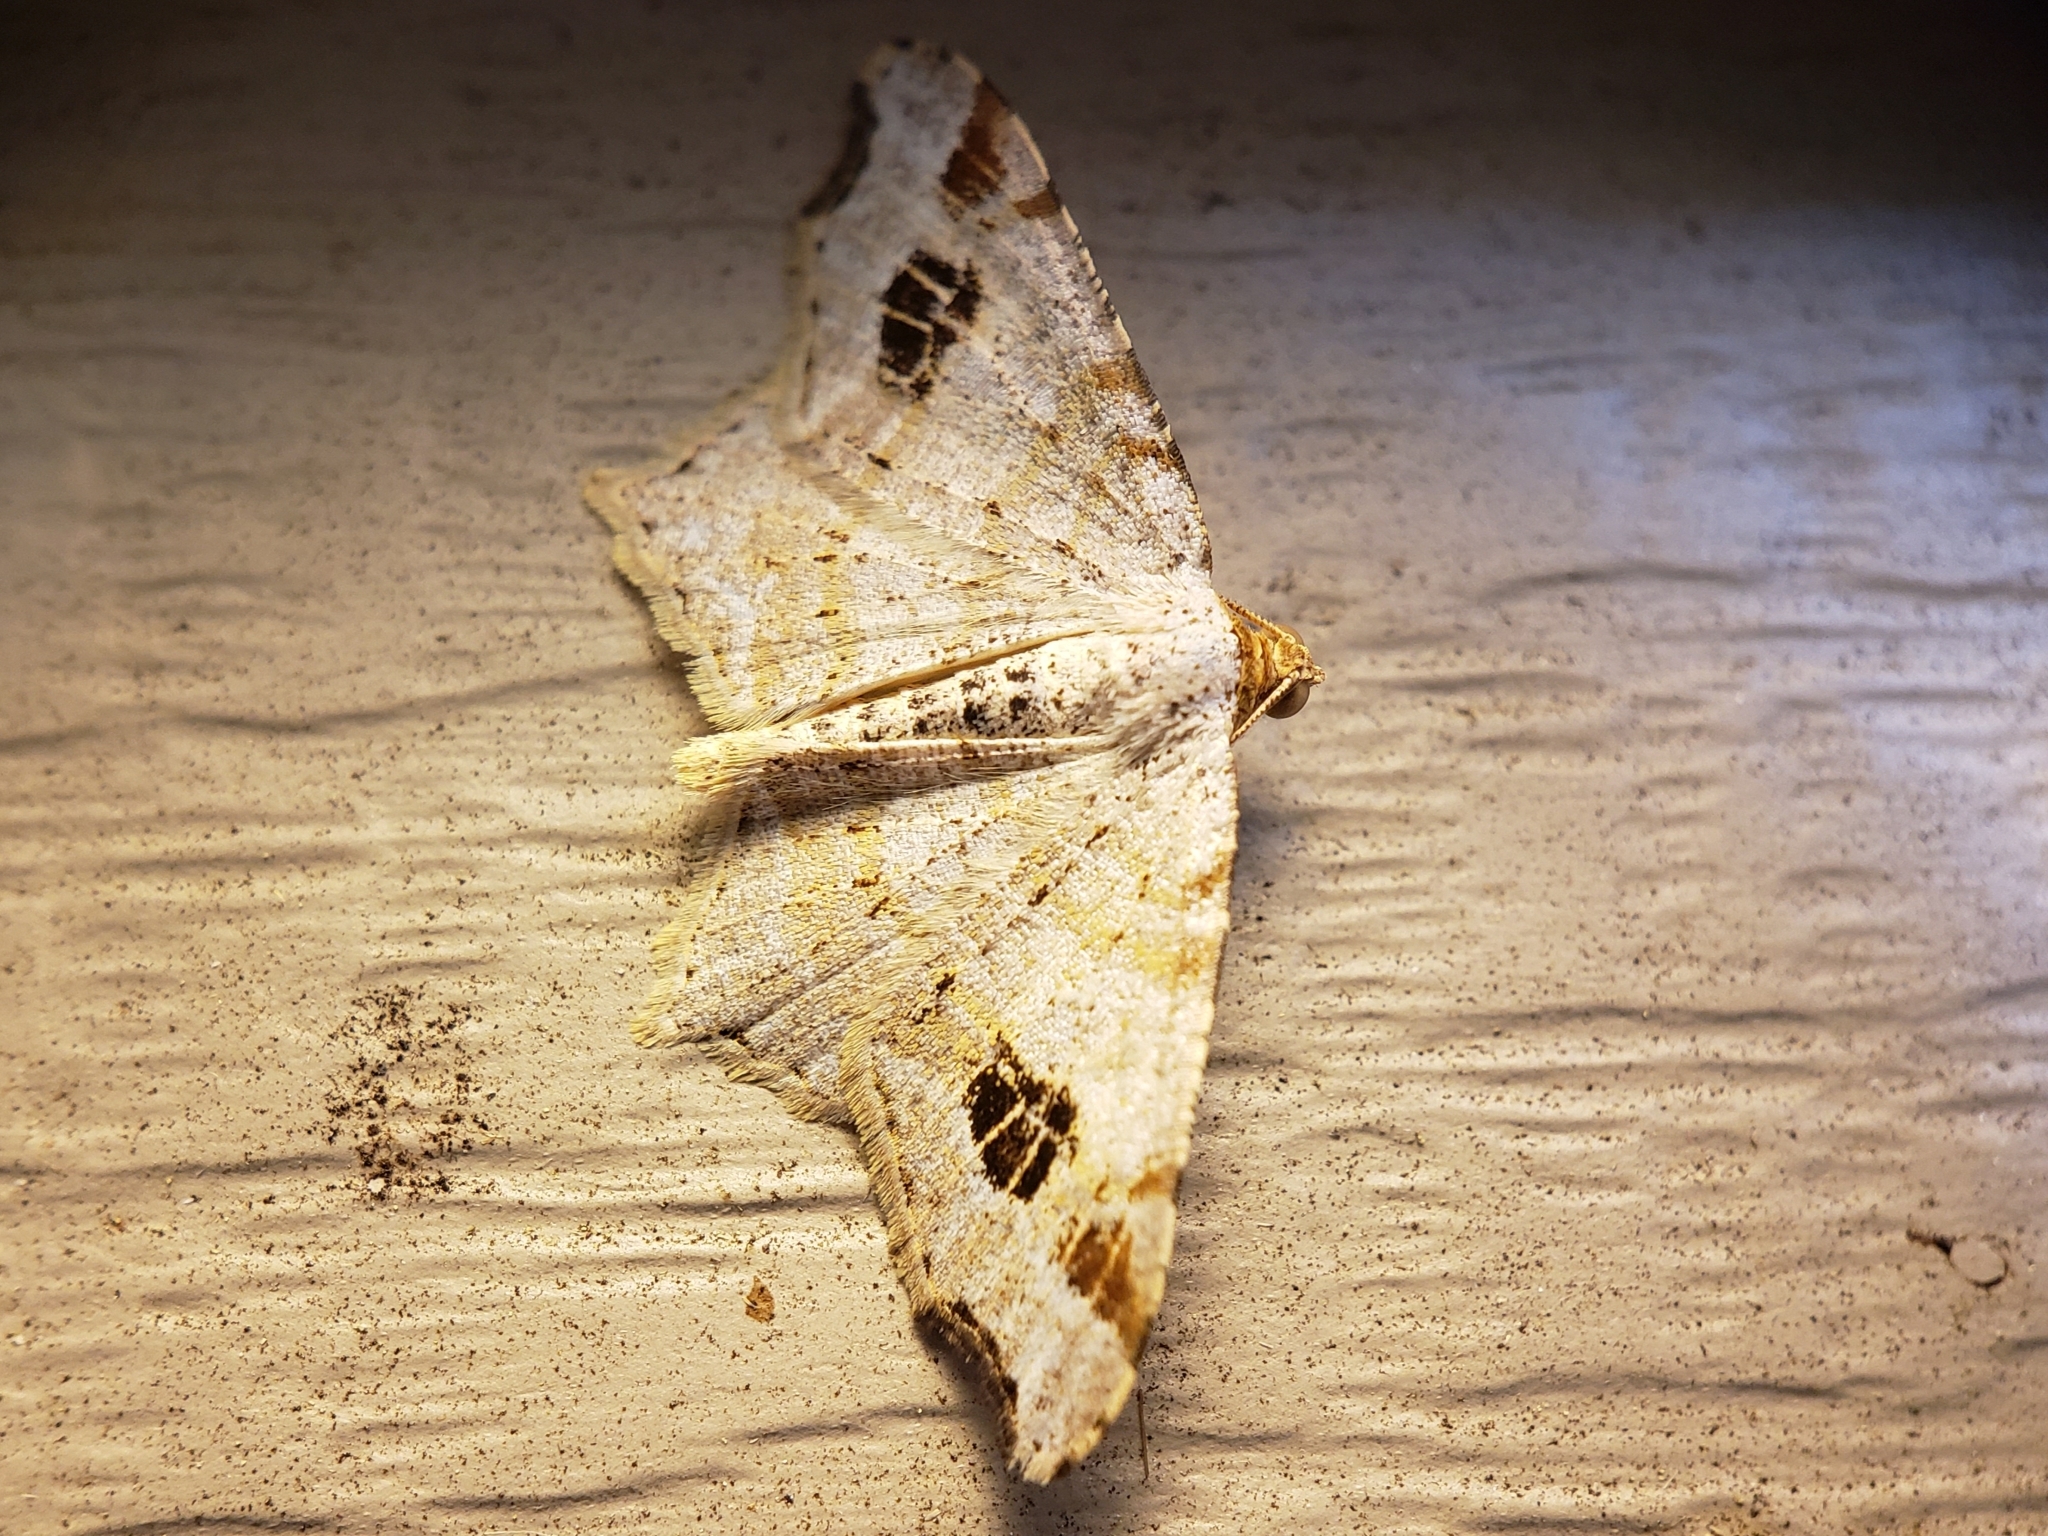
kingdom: Animalia
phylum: Arthropoda
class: Insecta
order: Lepidoptera
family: Geometridae
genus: Macaria
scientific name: Macaria aemulataria
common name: Common angle
